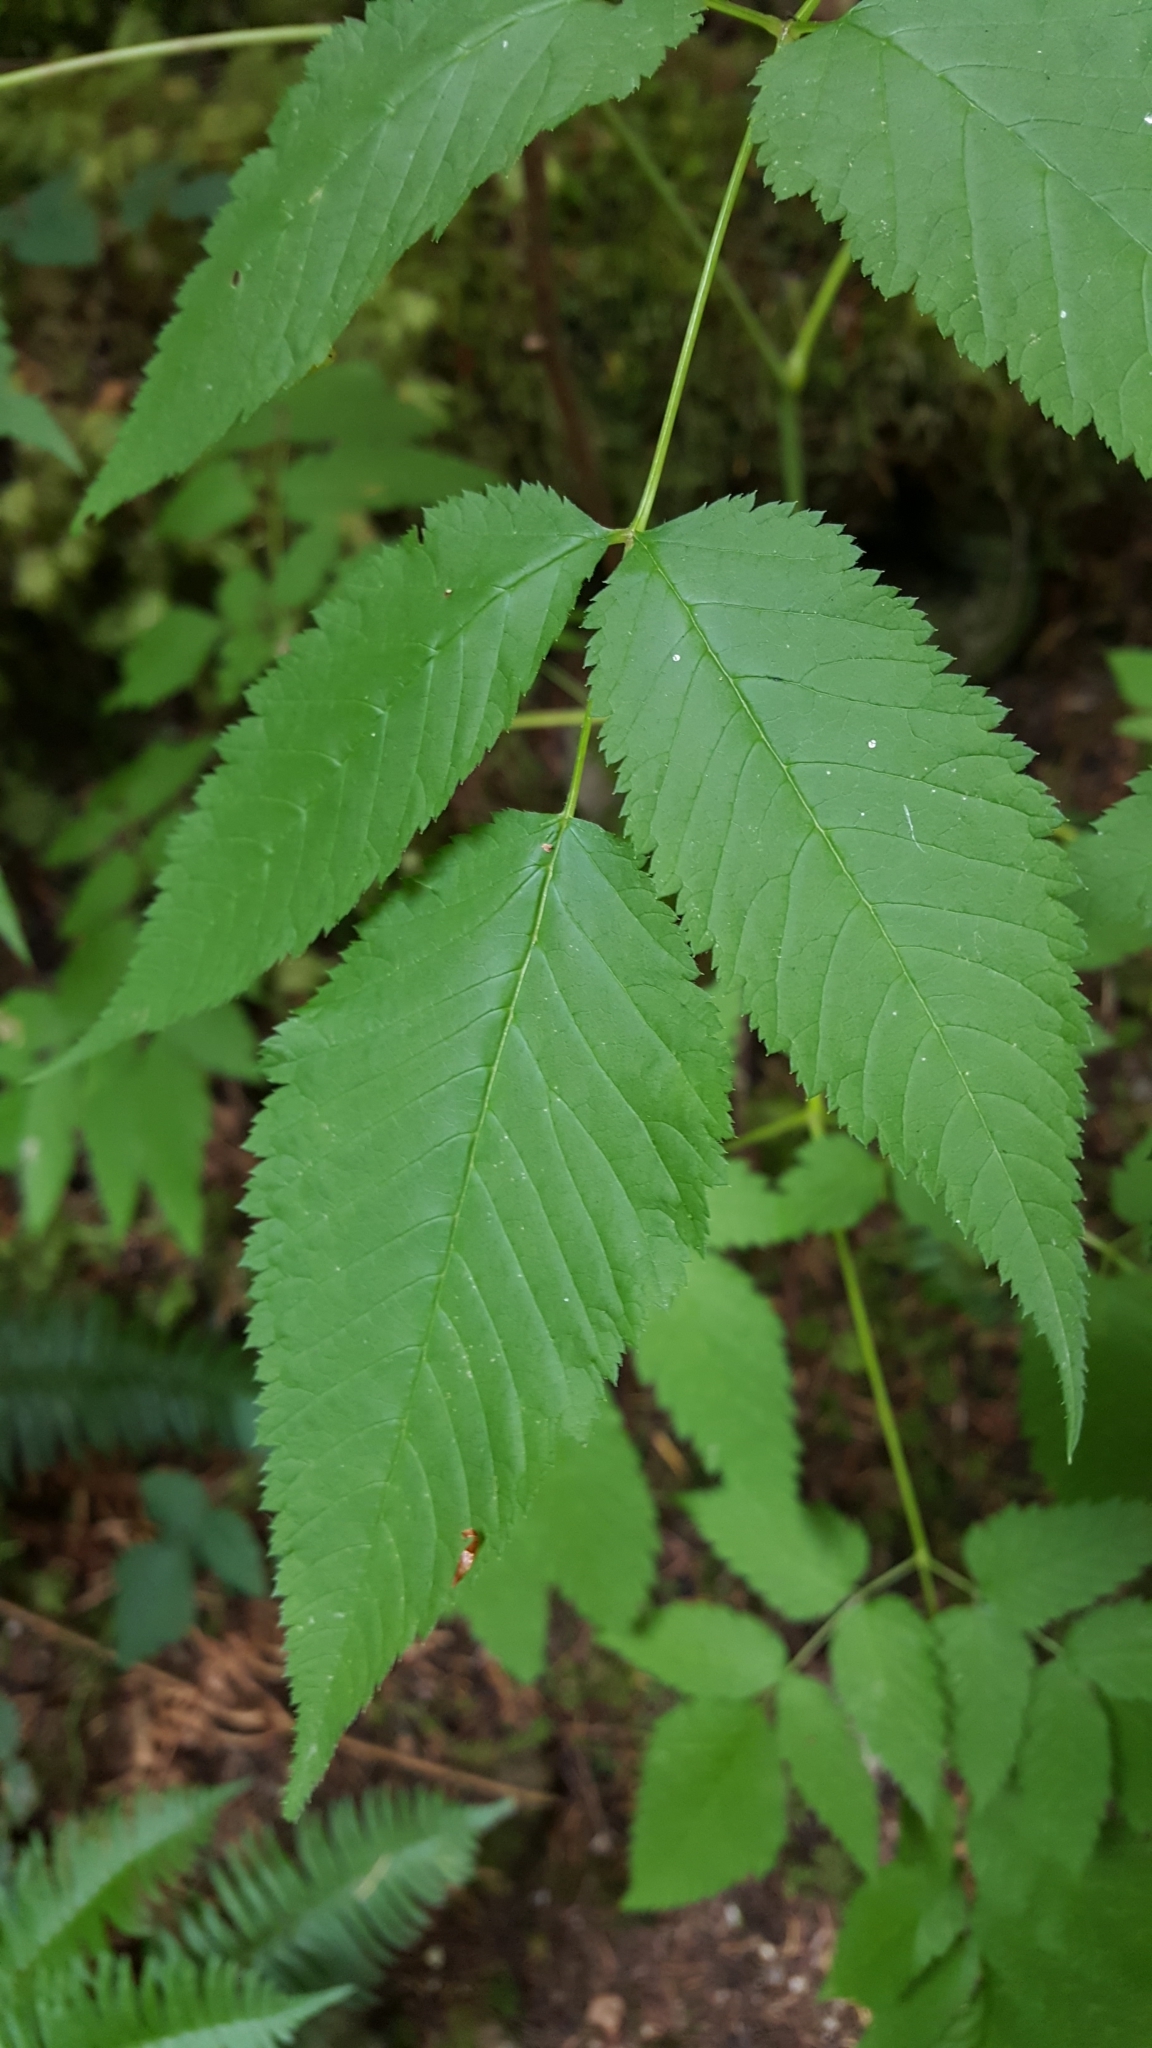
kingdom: Plantae
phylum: Tracheophyta
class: Magnoliopsida
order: Rosales
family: Rosaceae
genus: Aruncus
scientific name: Aruncus dioicus
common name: Buck's-beard
